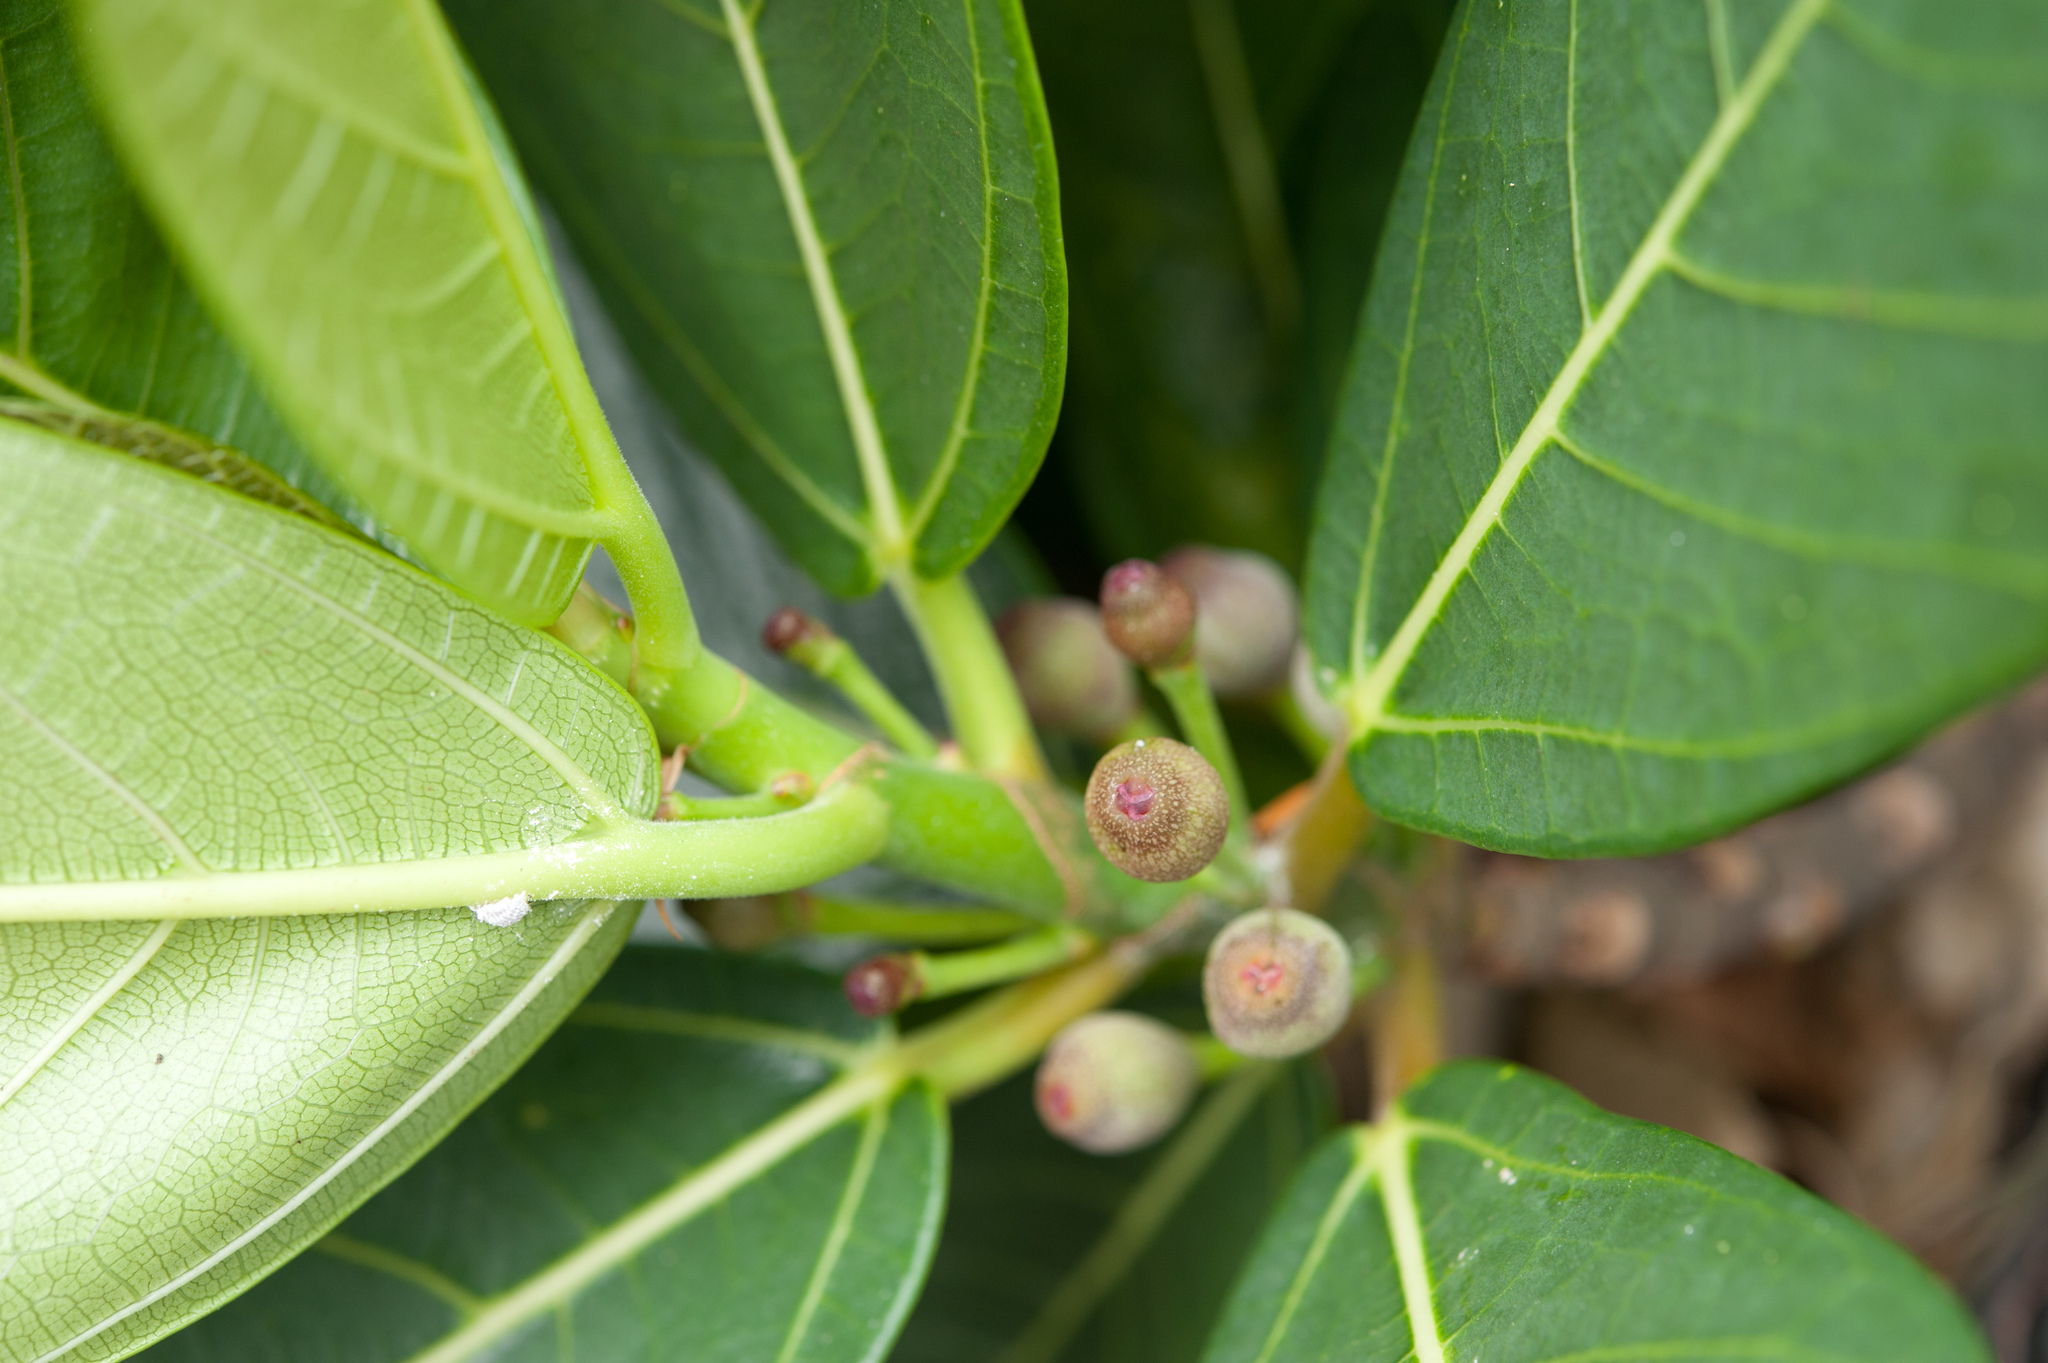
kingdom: Plantae
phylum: Tracheophyta
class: Magnoliopsida
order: Rosales
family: Moraceae
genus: Ficus
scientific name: Ficus pedunculosa
